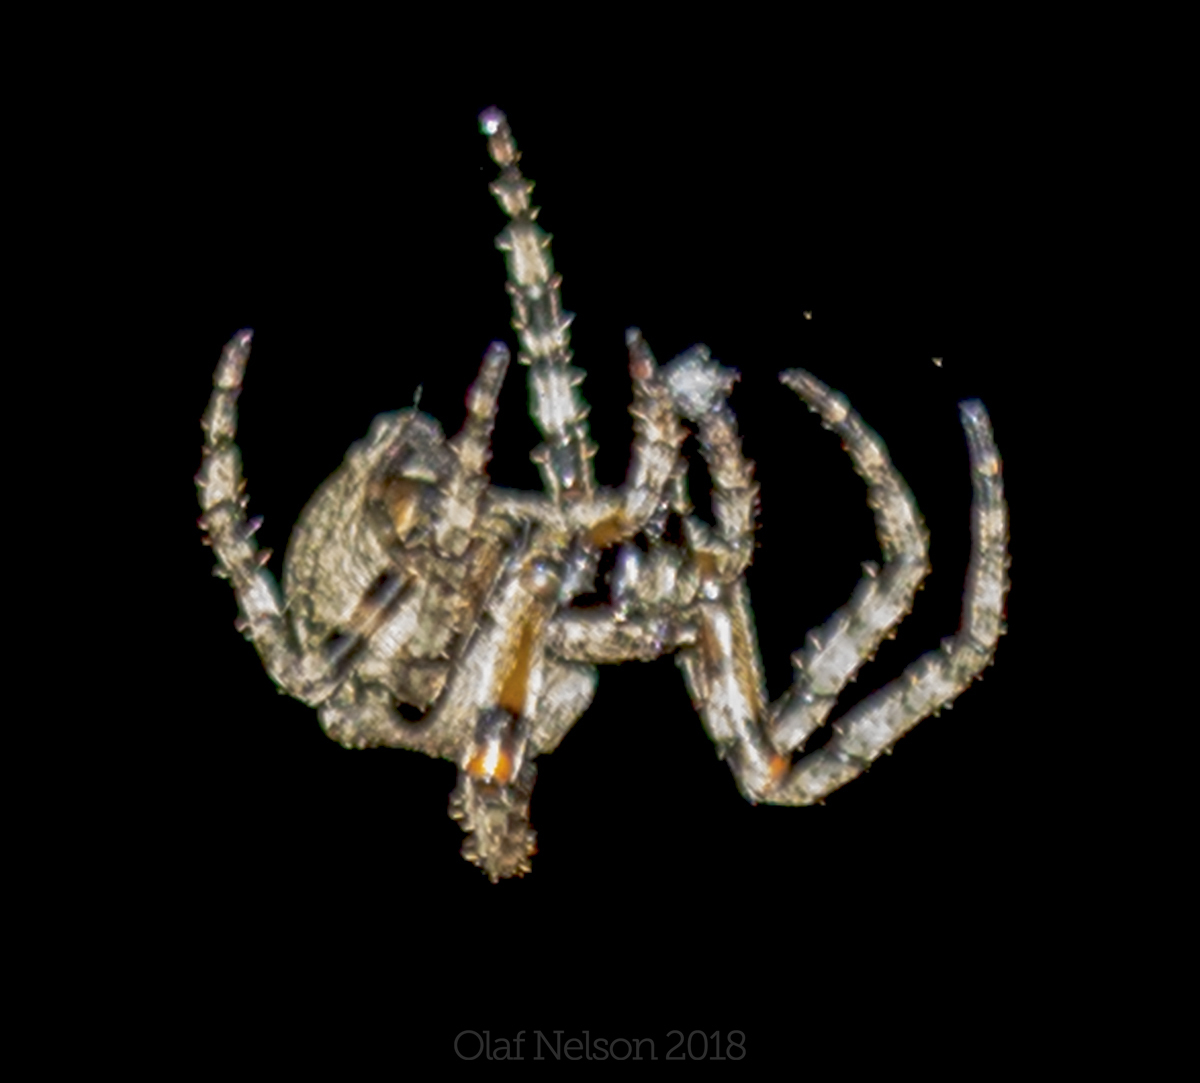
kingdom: Animalia
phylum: Arthropoda
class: Arachnida
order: Araneae
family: Araneidae
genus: Araneus
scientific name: Araneus bicentenarius
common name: Giant lichen orbweaver
